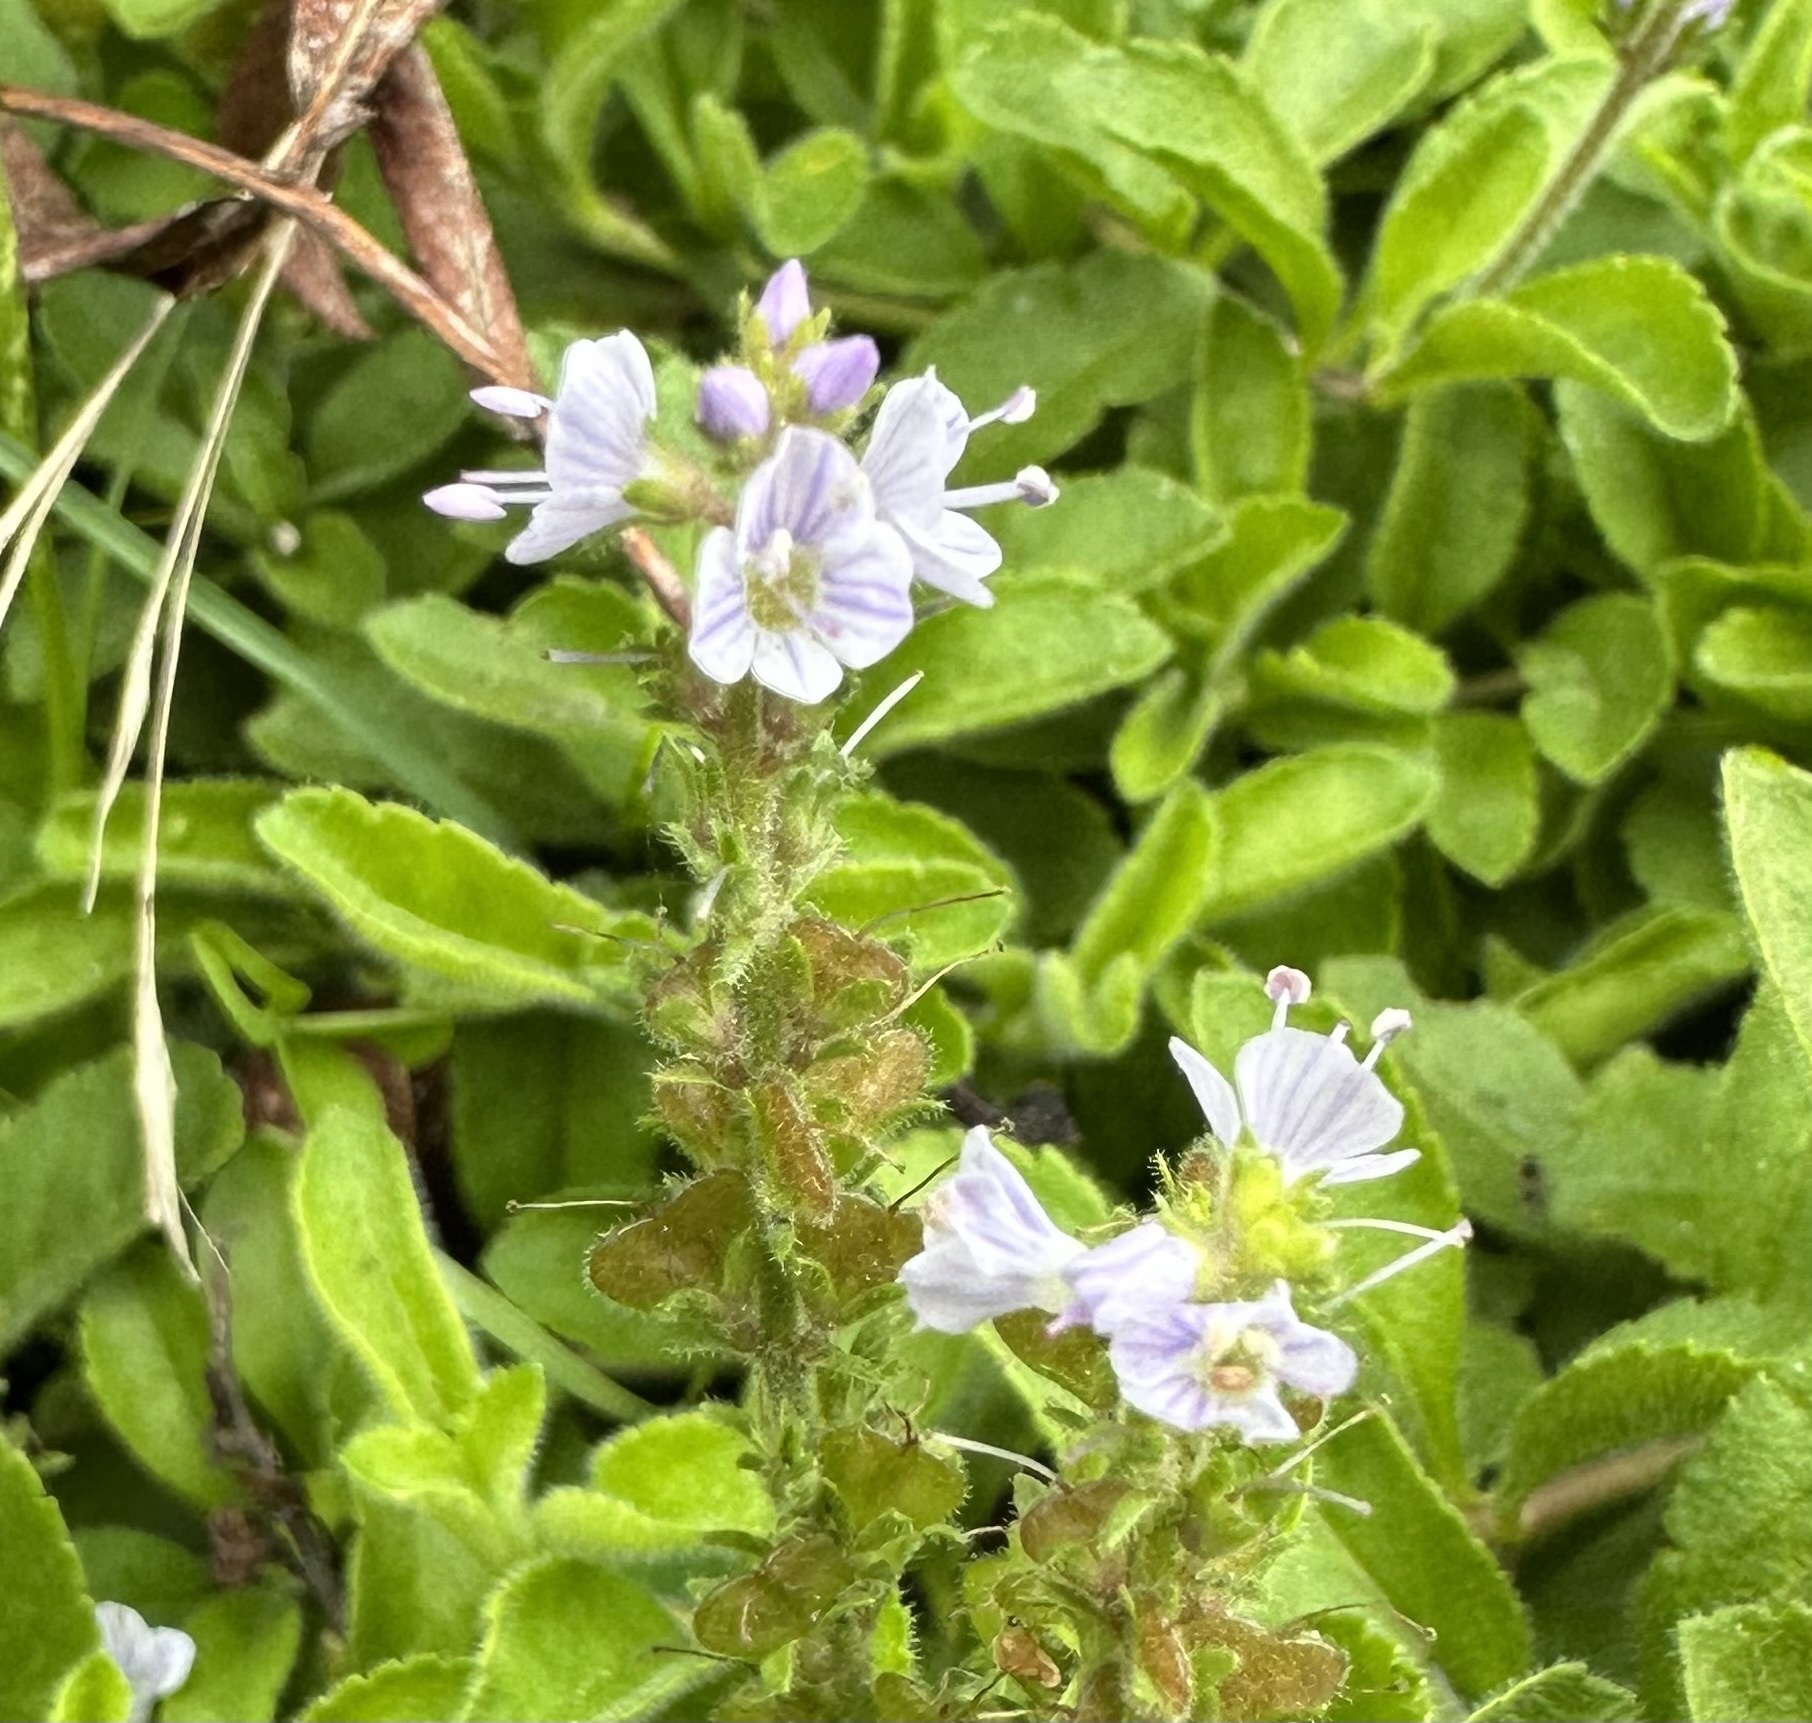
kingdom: Plantae
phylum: Tracheophyta
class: Magnoliopsida
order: Lamiales
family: Plantaginaceae
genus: Veronica
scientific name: Veronica officinalis
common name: Common speedwell
